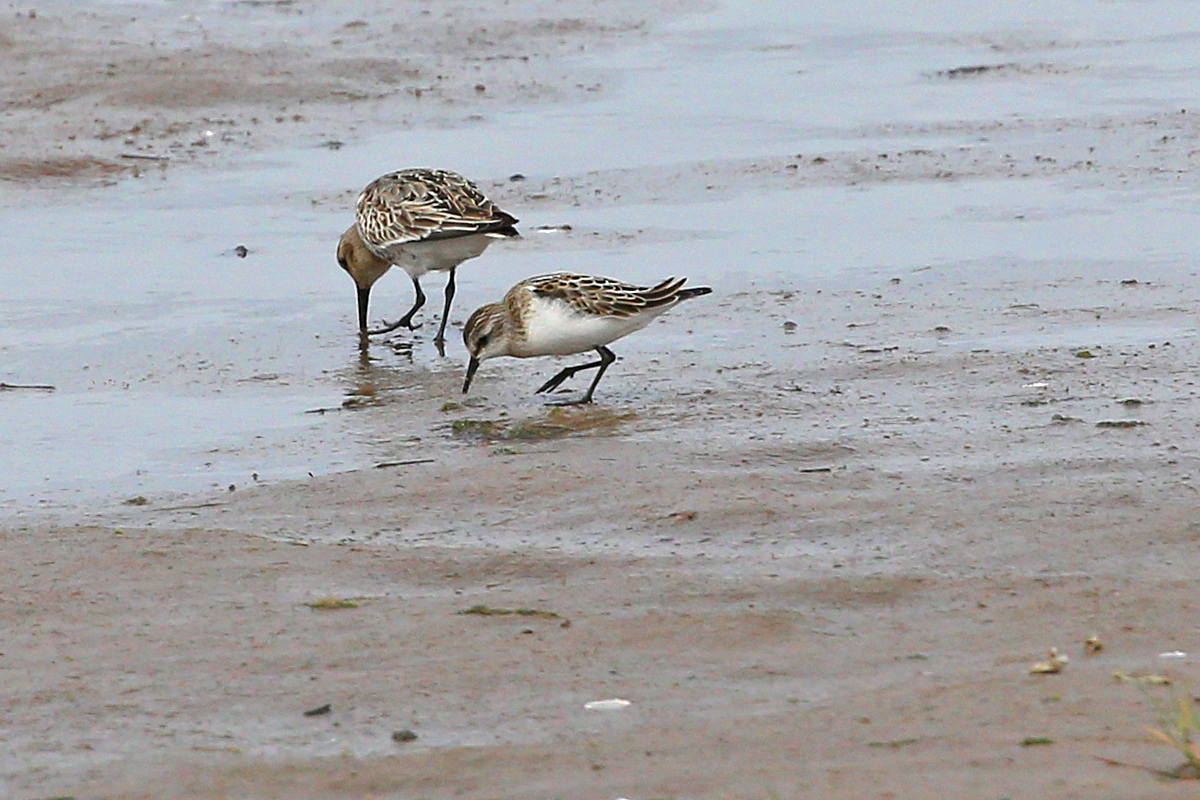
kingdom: Animalia
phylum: Chordata
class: Aves
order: Charadriiformes
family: Scolopacidae
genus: Calidris
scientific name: Calidris minuta
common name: Little stint
